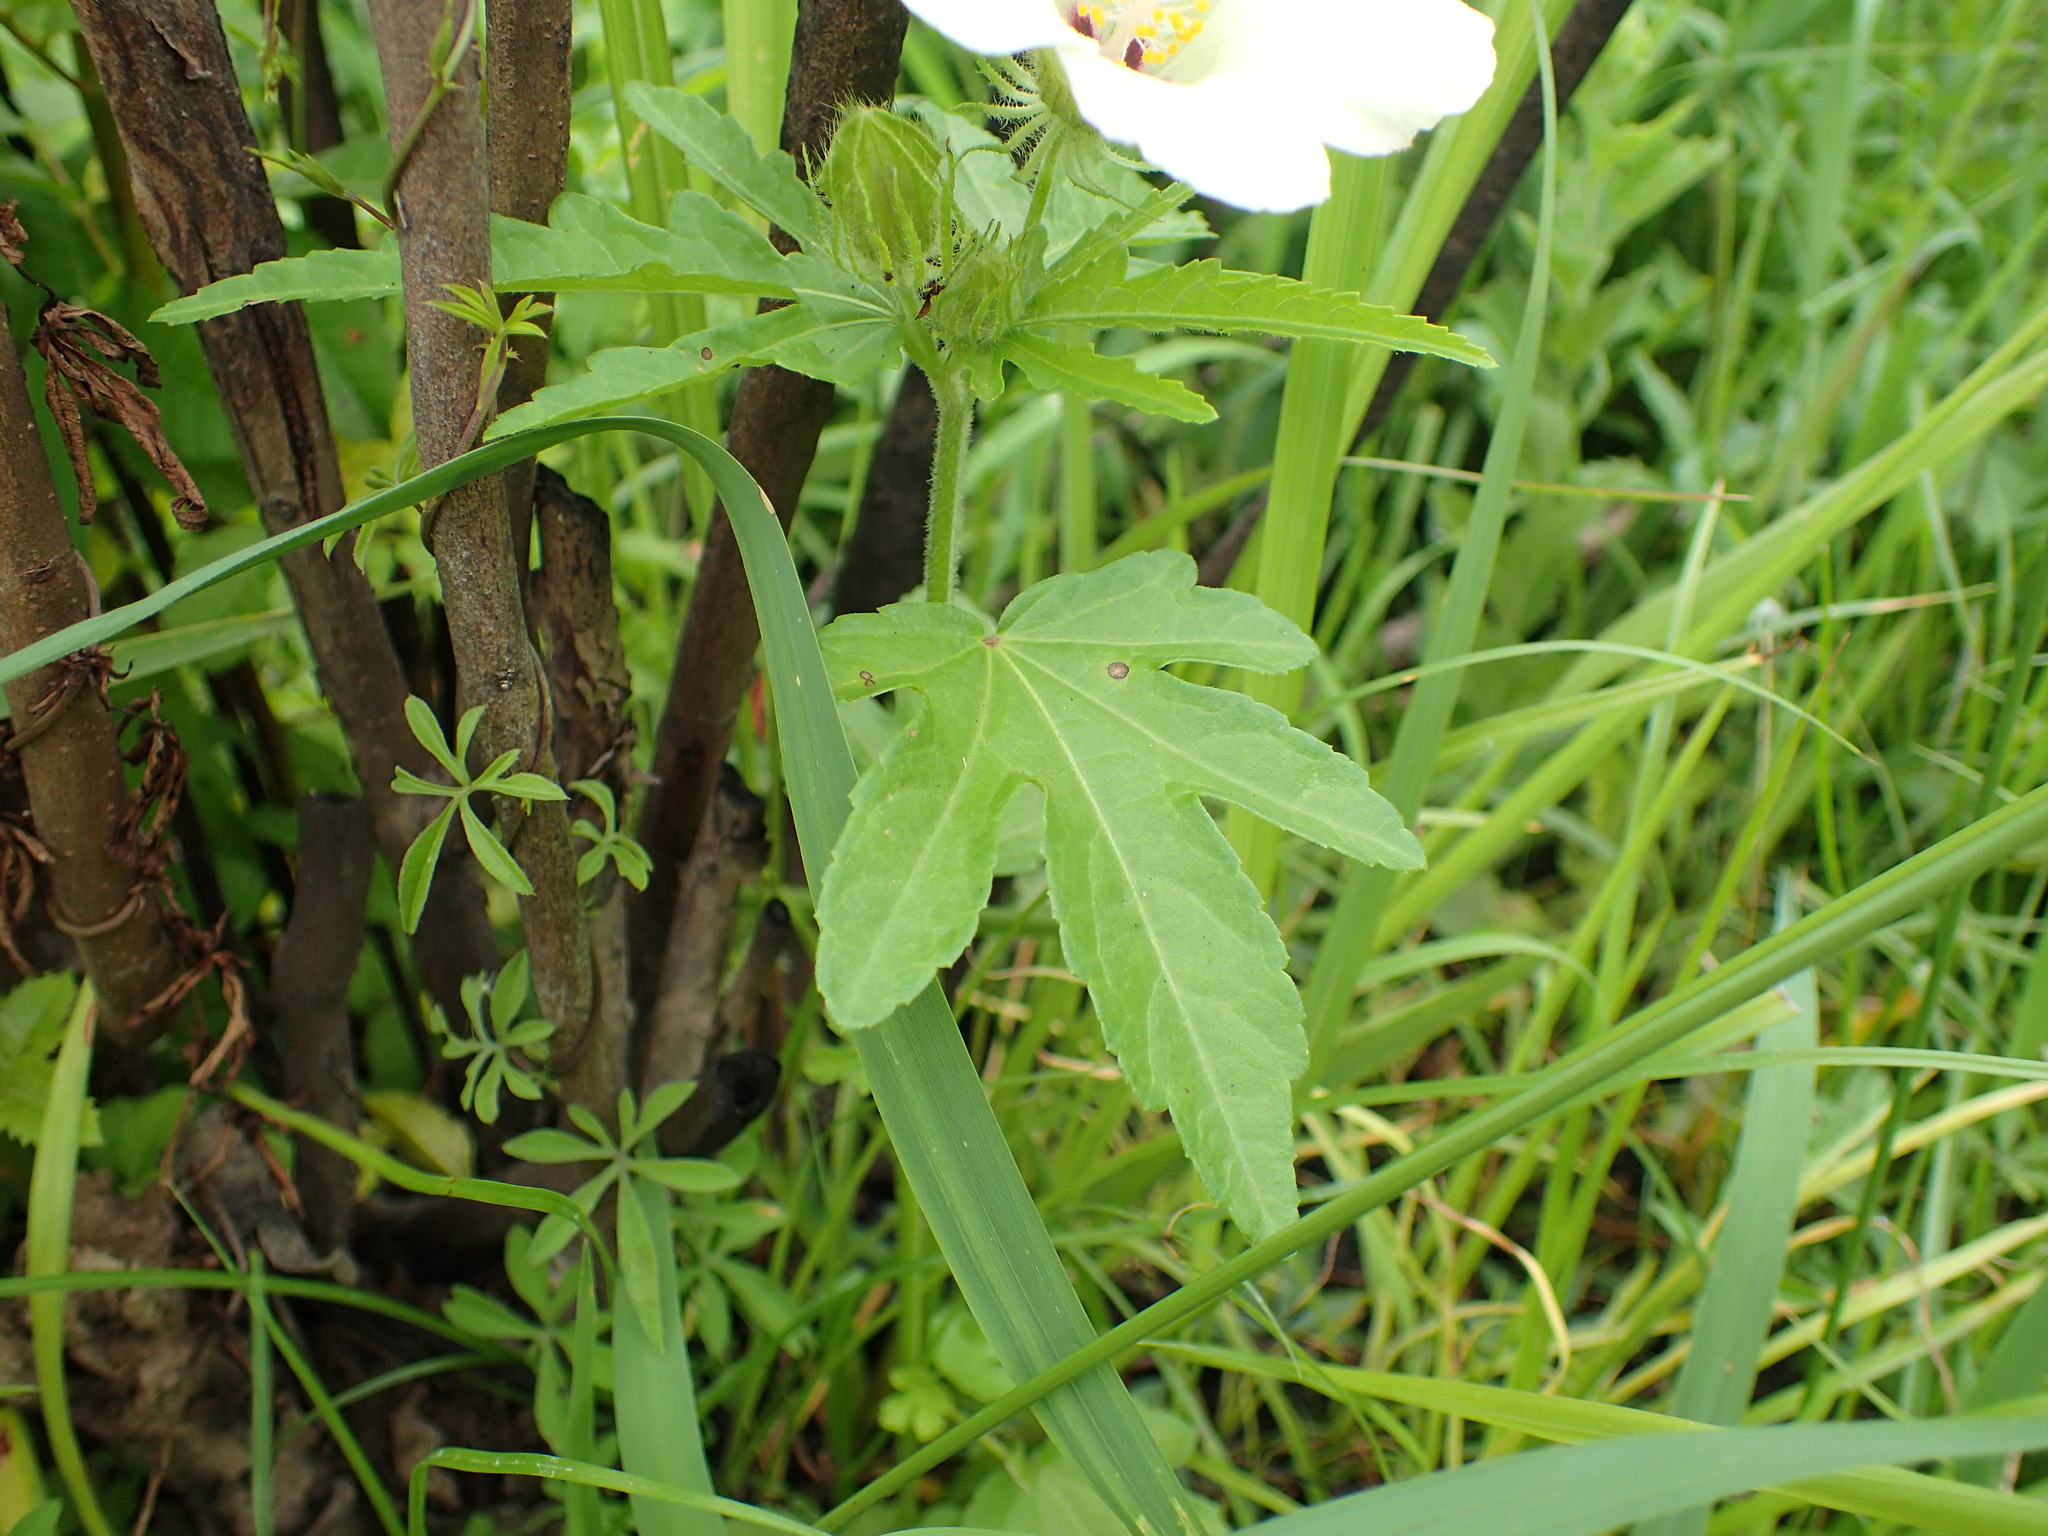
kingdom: Plantae
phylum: Tracheophyta
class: Magnoliopsida
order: Malvales
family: Malvaceae
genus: Hibiscus
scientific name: Hibiscus trionum
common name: Bladder ketmia
